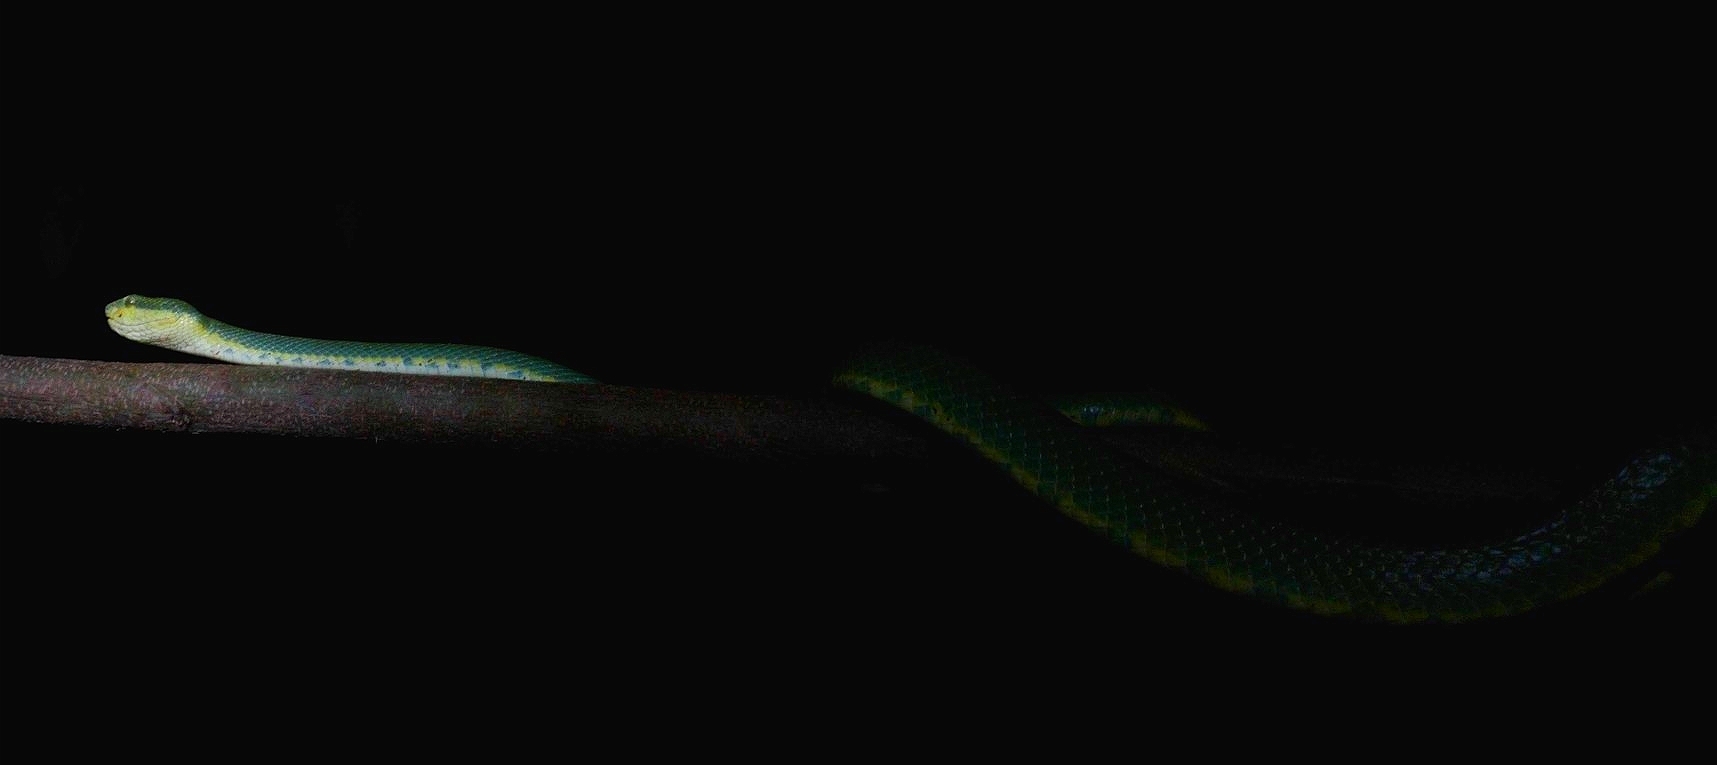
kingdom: Animalia
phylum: Chordata
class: Squamata
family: Viperidae
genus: Craspedocephalus
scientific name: Craspedocephalus gramineus
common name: Common bamboo viper
